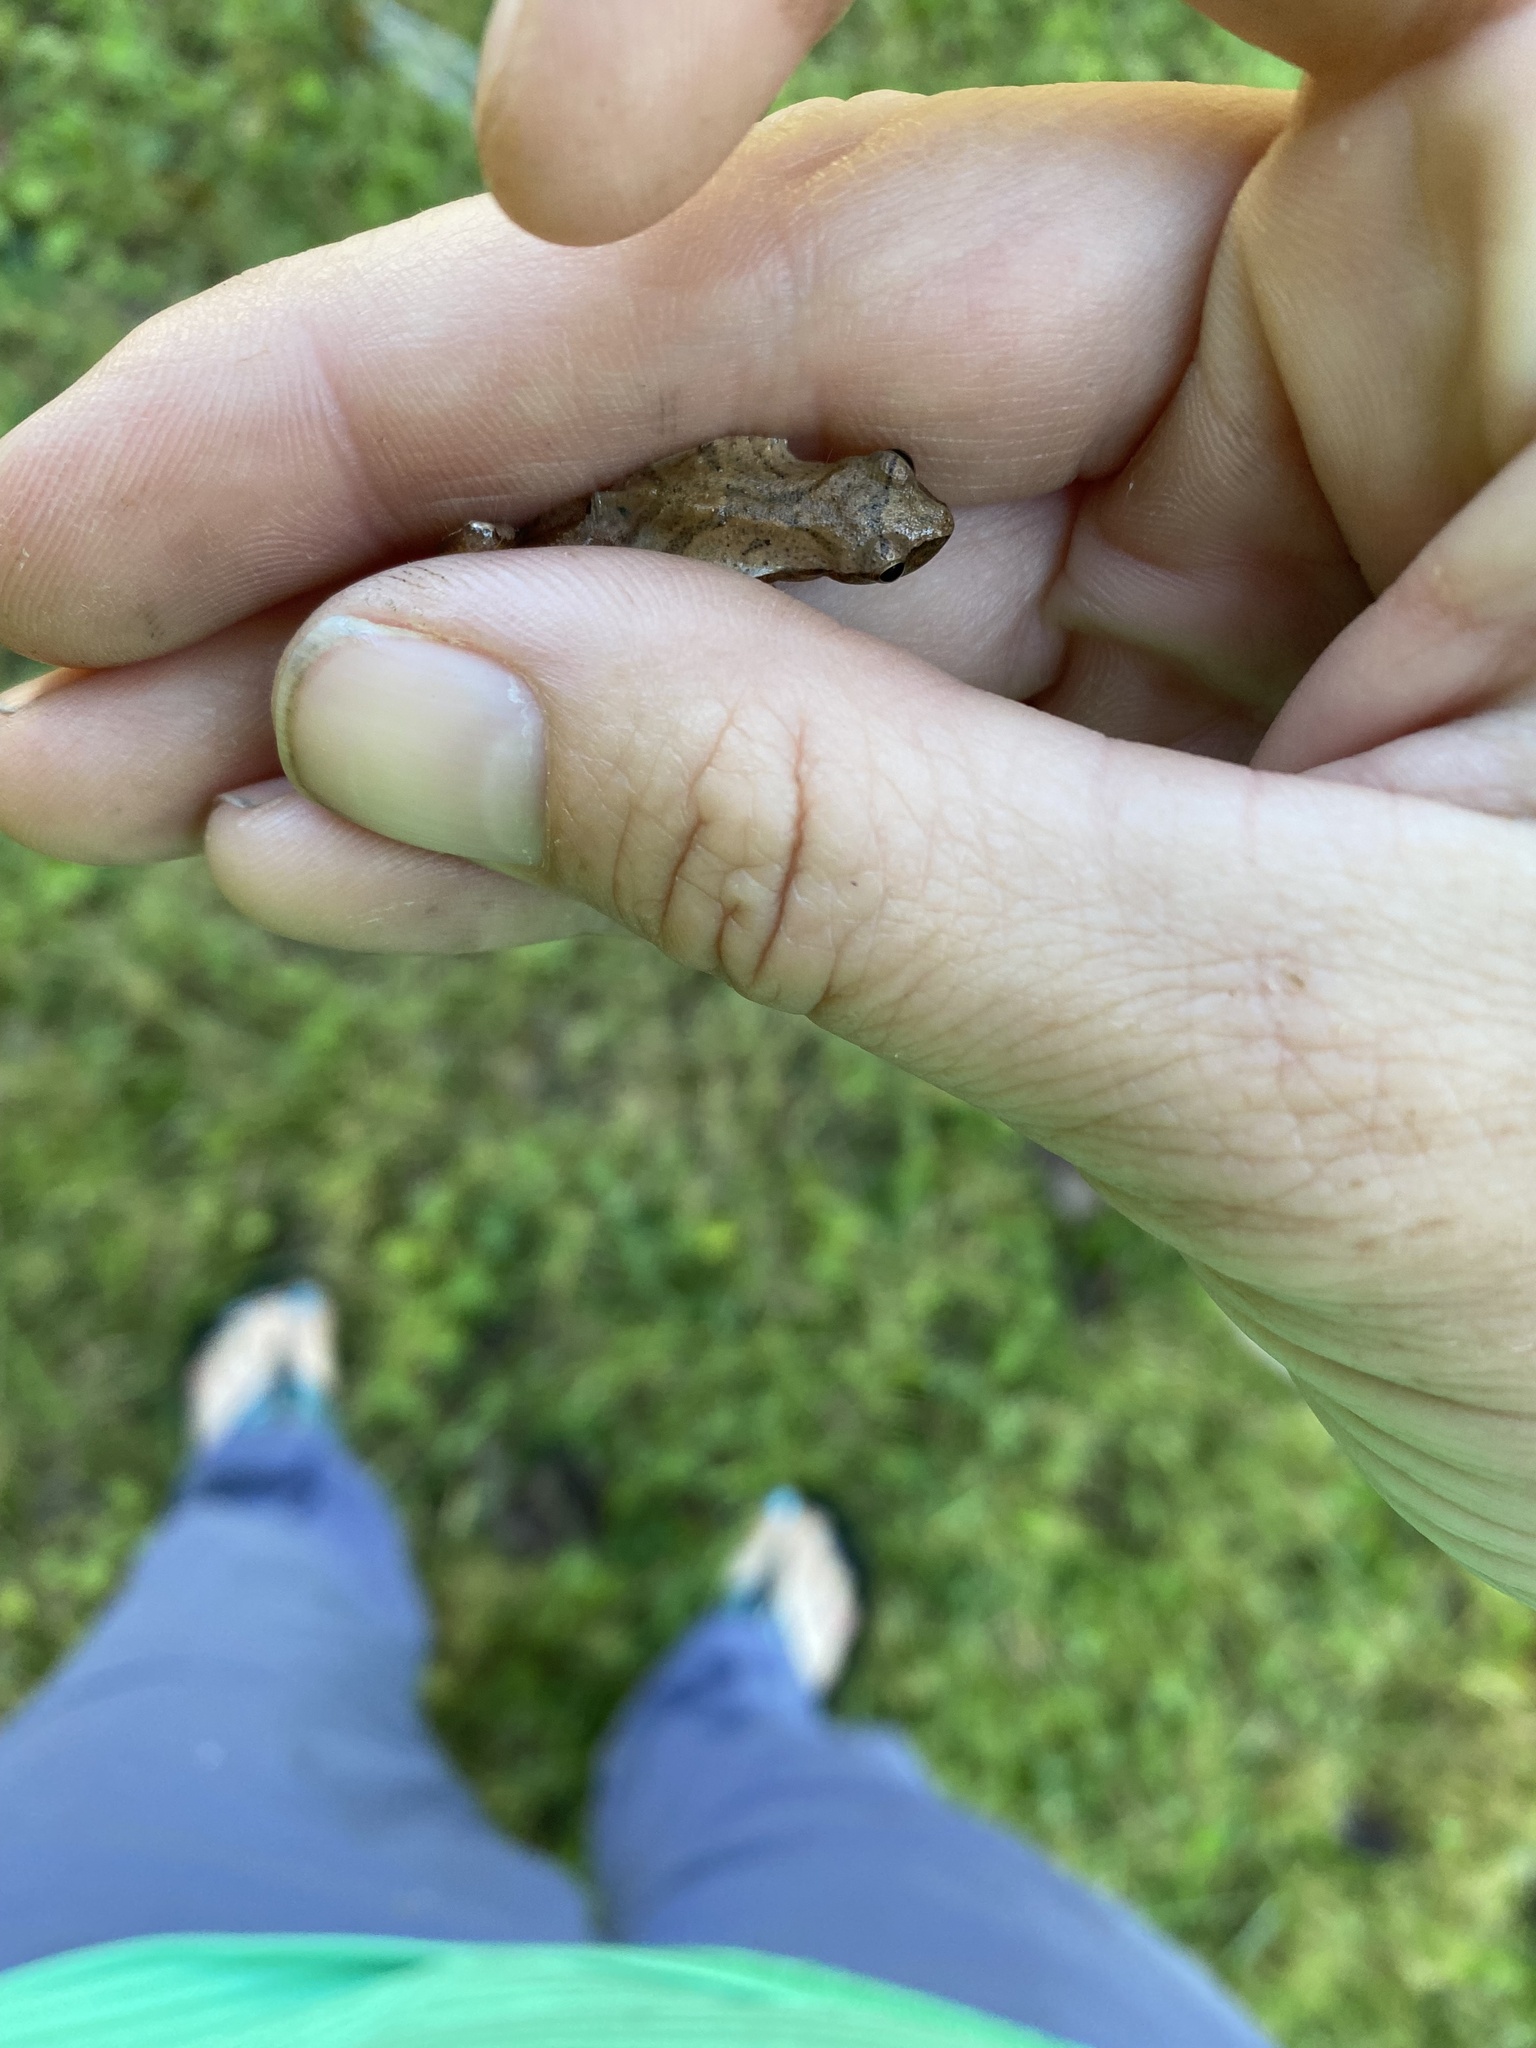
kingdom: Animalia
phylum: Chordata
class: Amphibia
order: Anura
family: Hylidae
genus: Pseudacris
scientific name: Pseudacris crucifer
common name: Spring peeper
